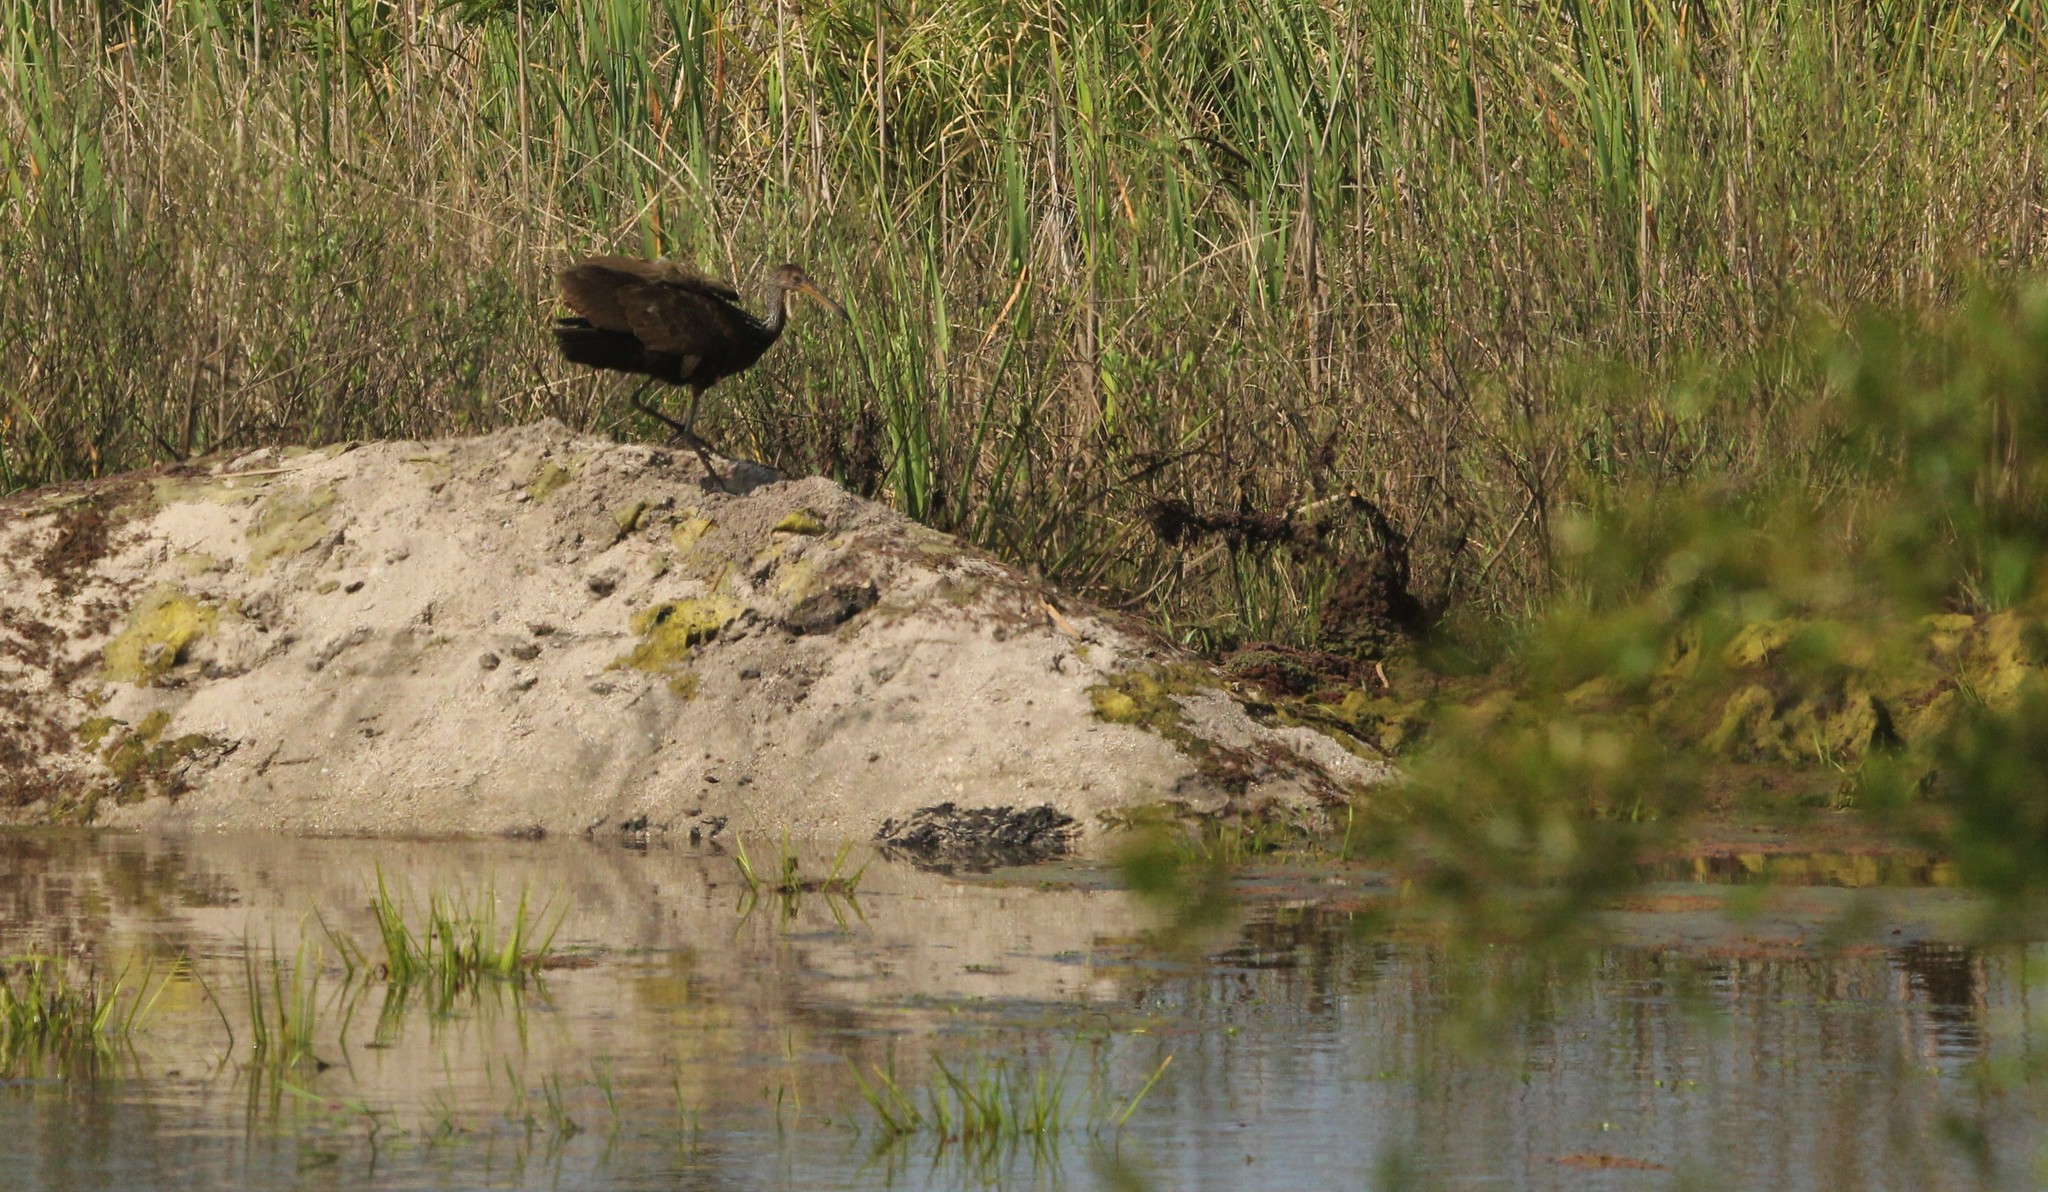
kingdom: Animalia
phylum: Chordata
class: Aves
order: Gruiformes
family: Aramidae
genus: Aramus
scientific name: Aramus guarauna
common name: Limpkin
